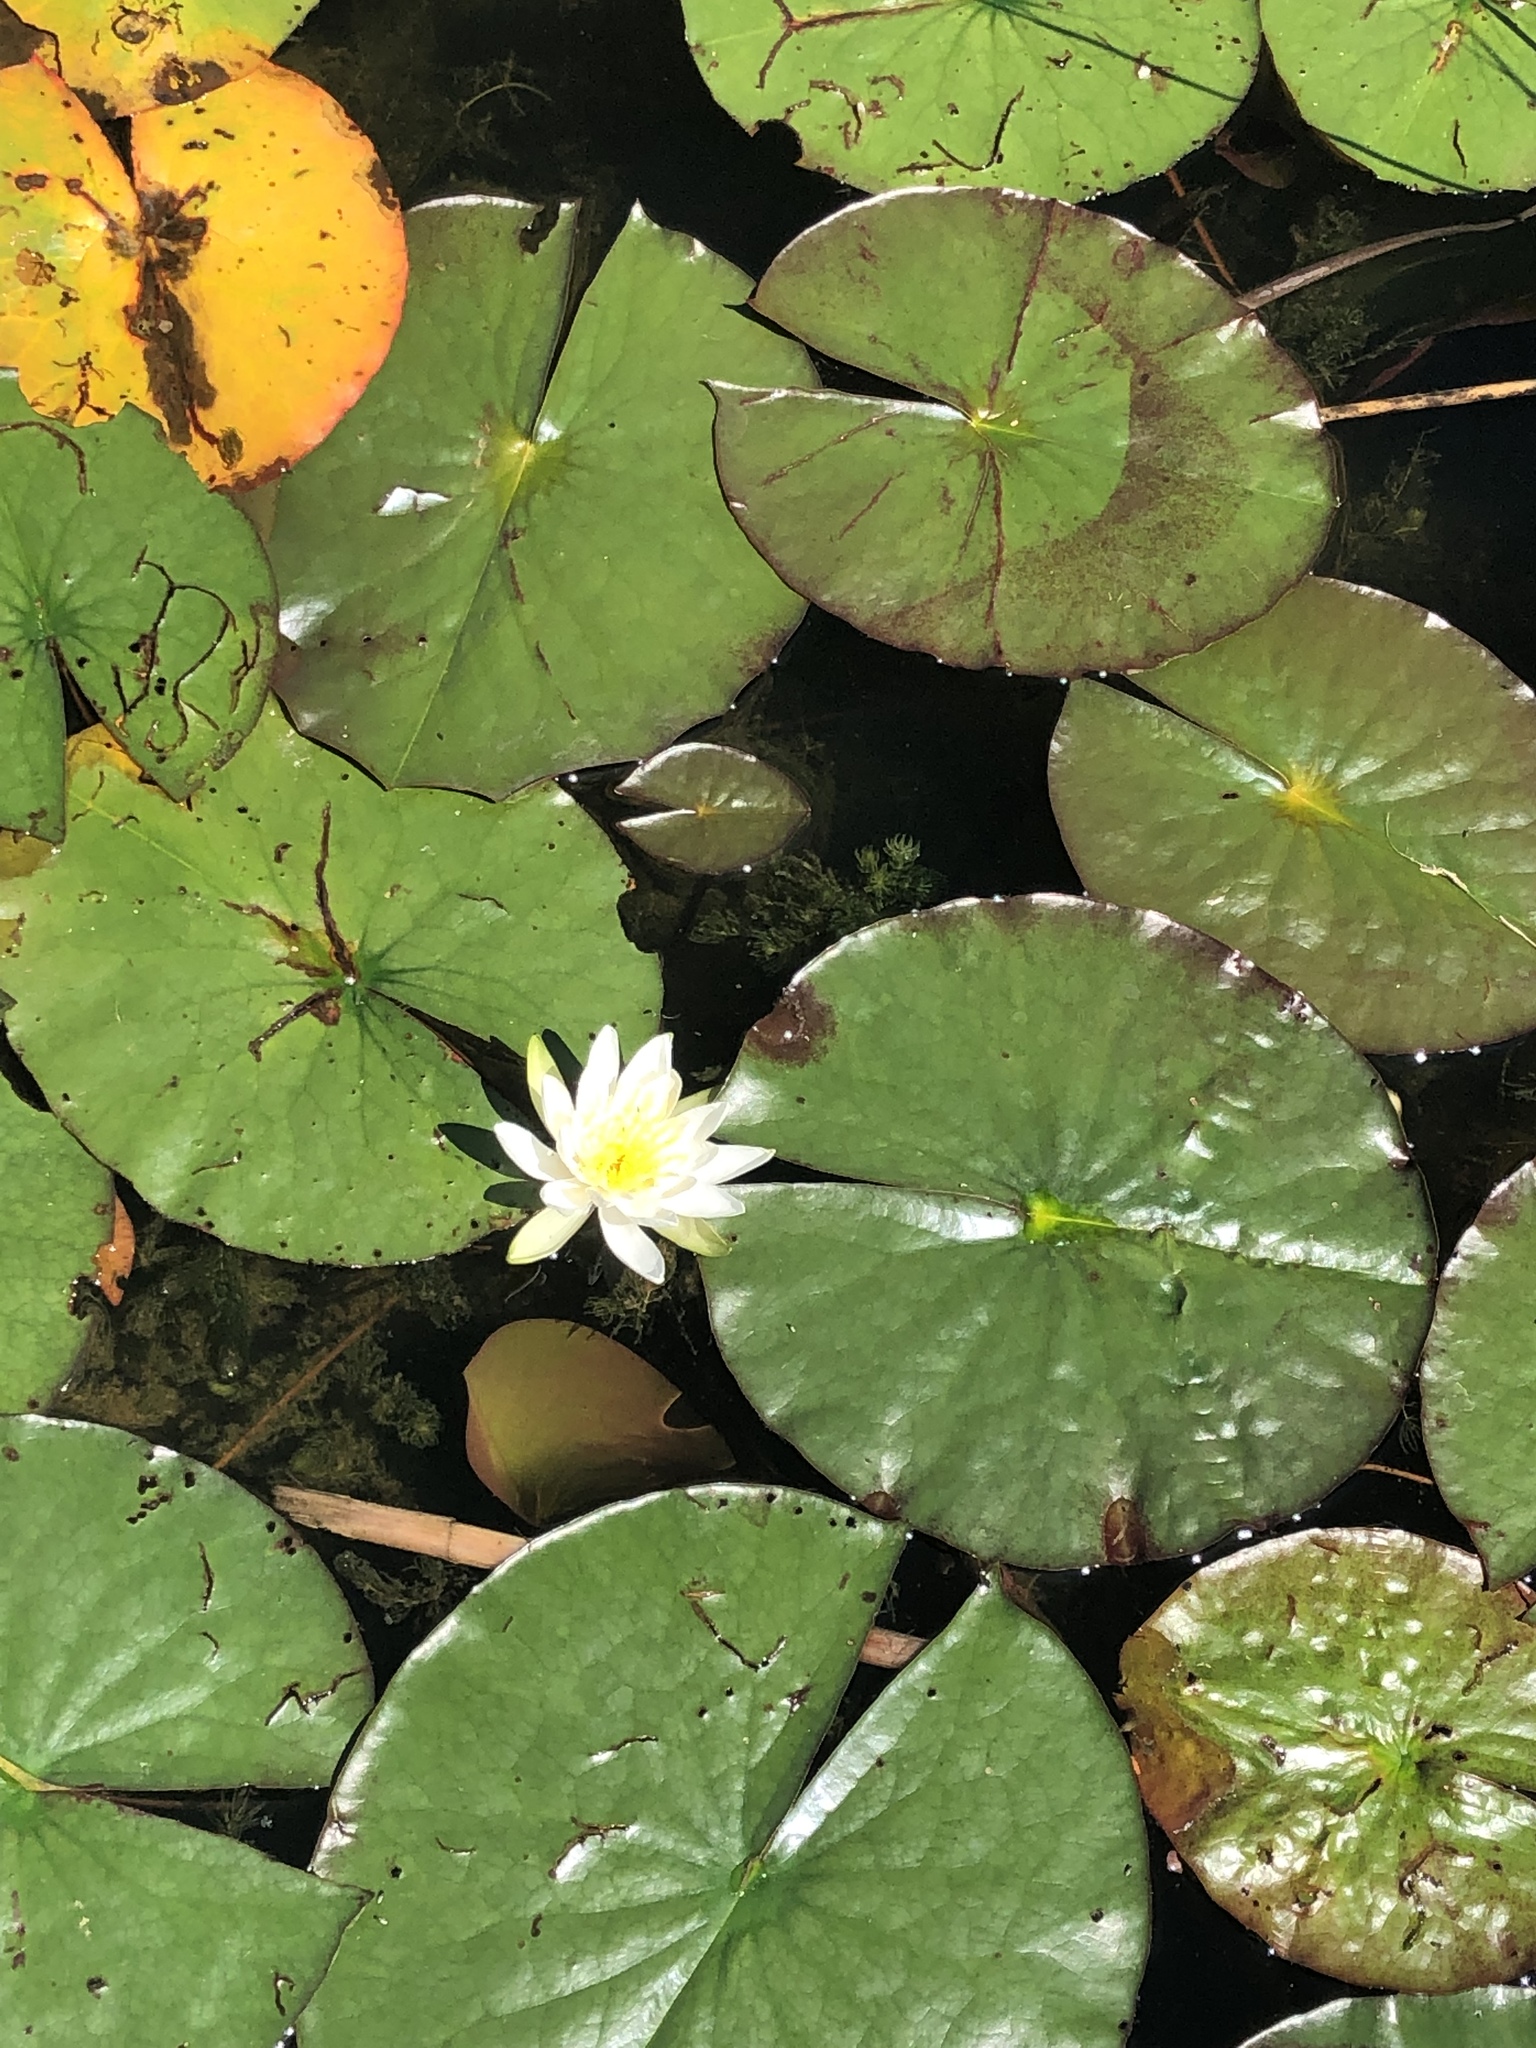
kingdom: Plantae
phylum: Tracheophyta
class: Magnoliopsida
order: Nymphaeales
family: Nymphaeaceae
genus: Nymphaea
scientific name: Nymphaea odorata
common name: Fragrant water-lily
